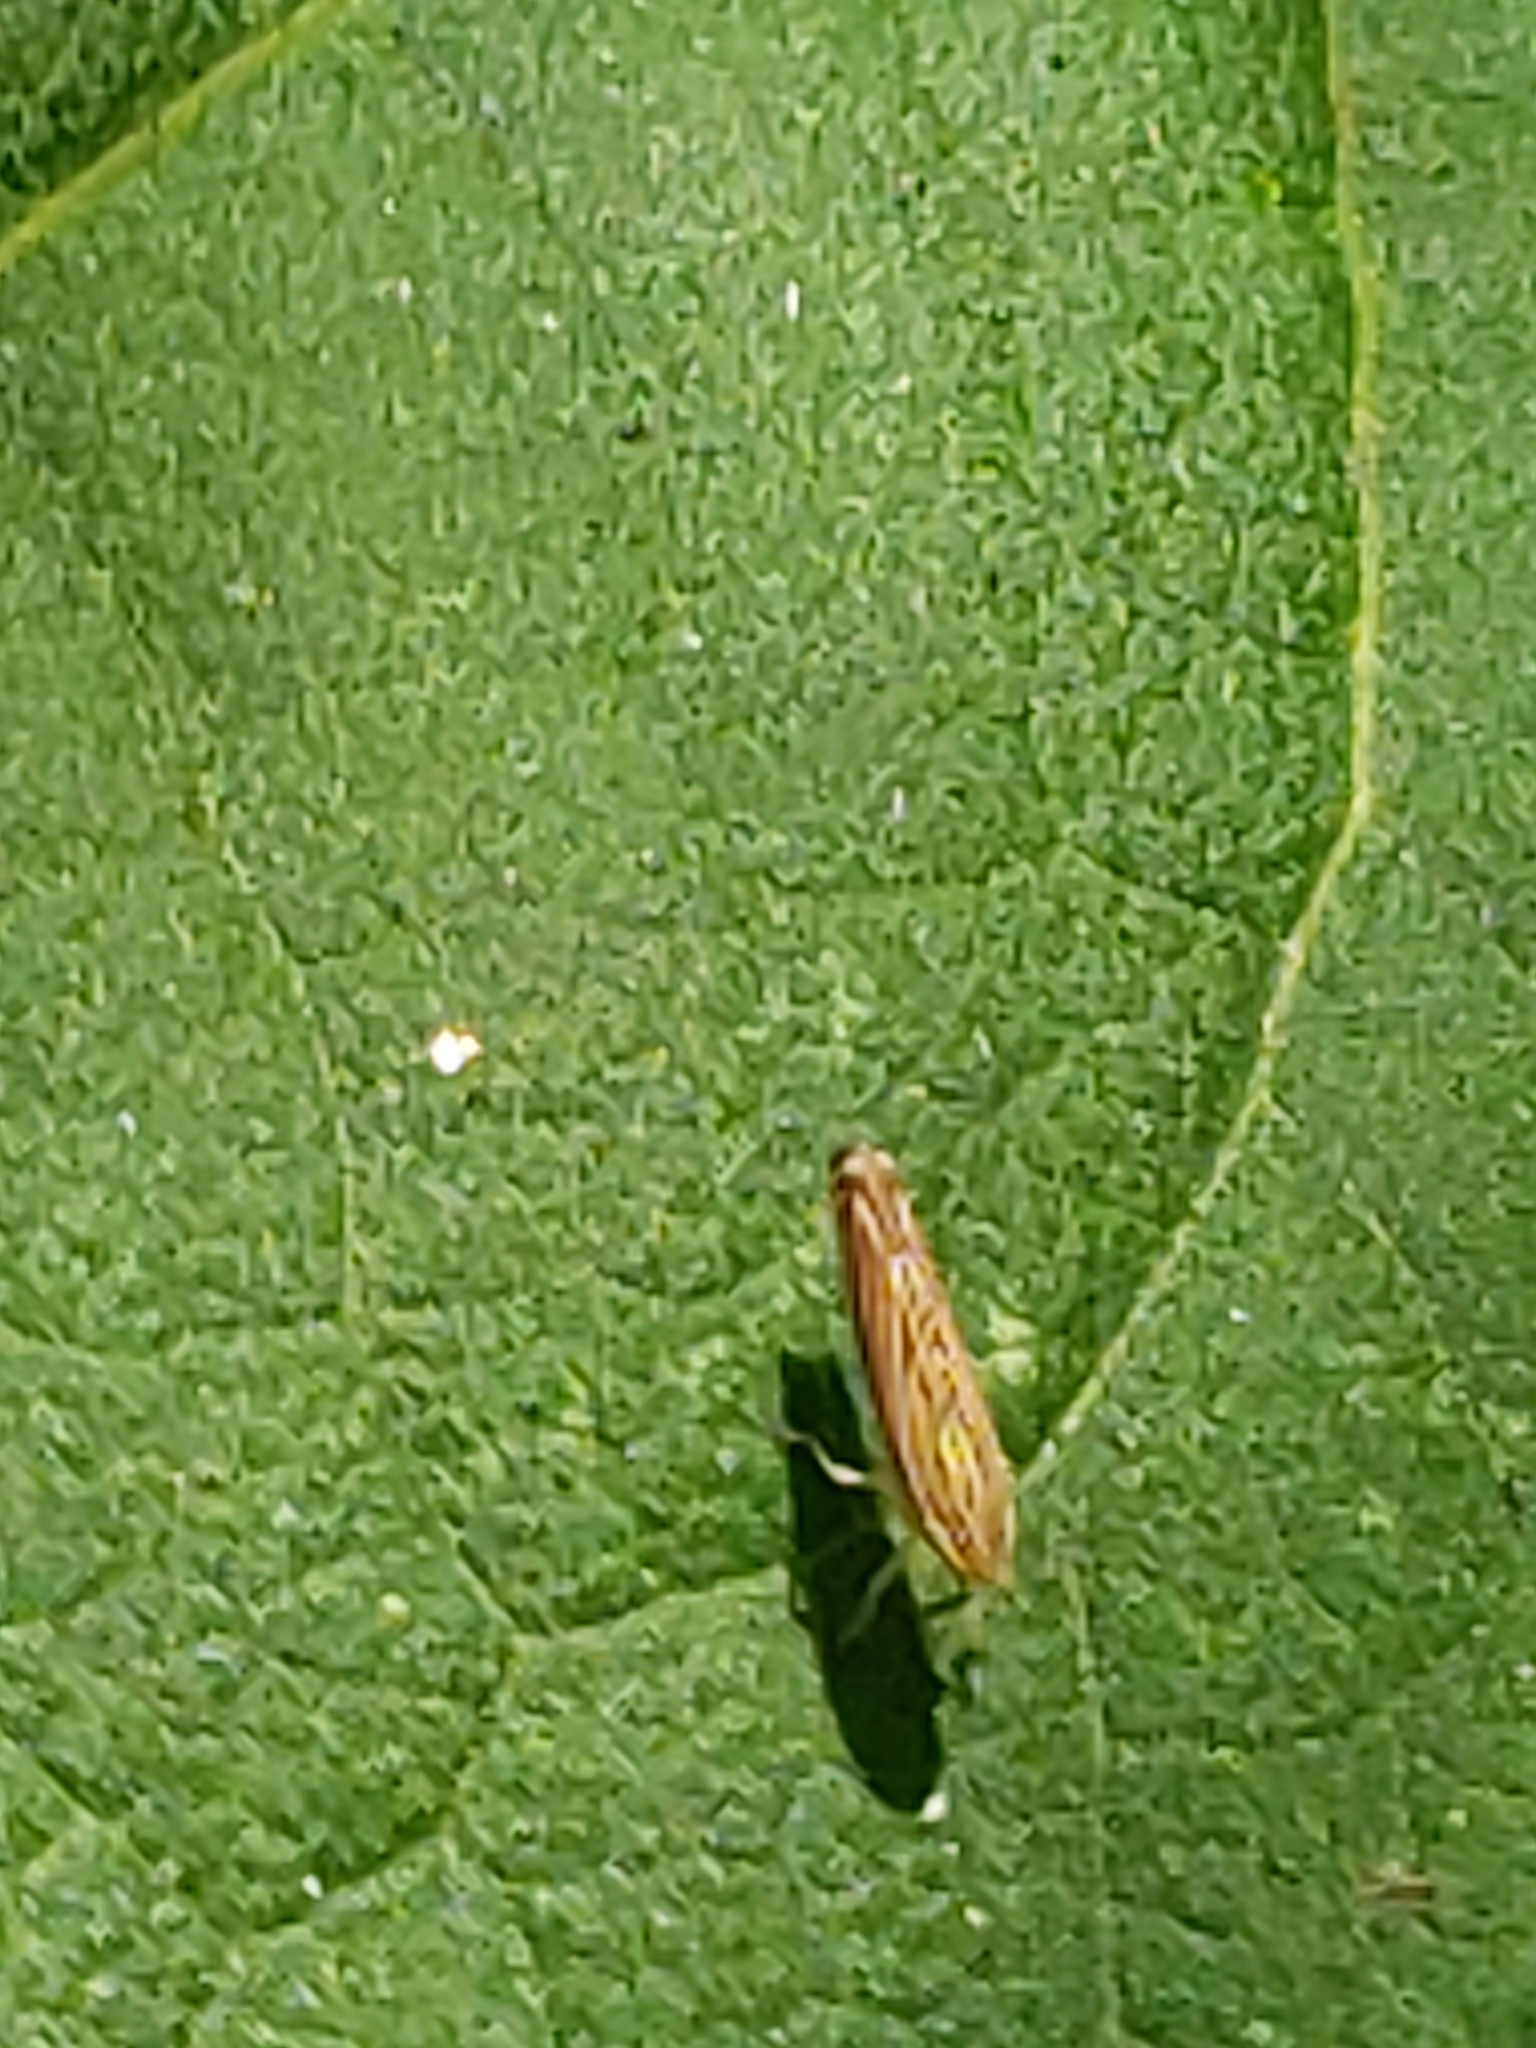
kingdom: Animalia
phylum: Arthropoda
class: Insecta
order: Hemiptera
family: Cicadellidae
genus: Sibovia
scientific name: Sibovia occatoria
